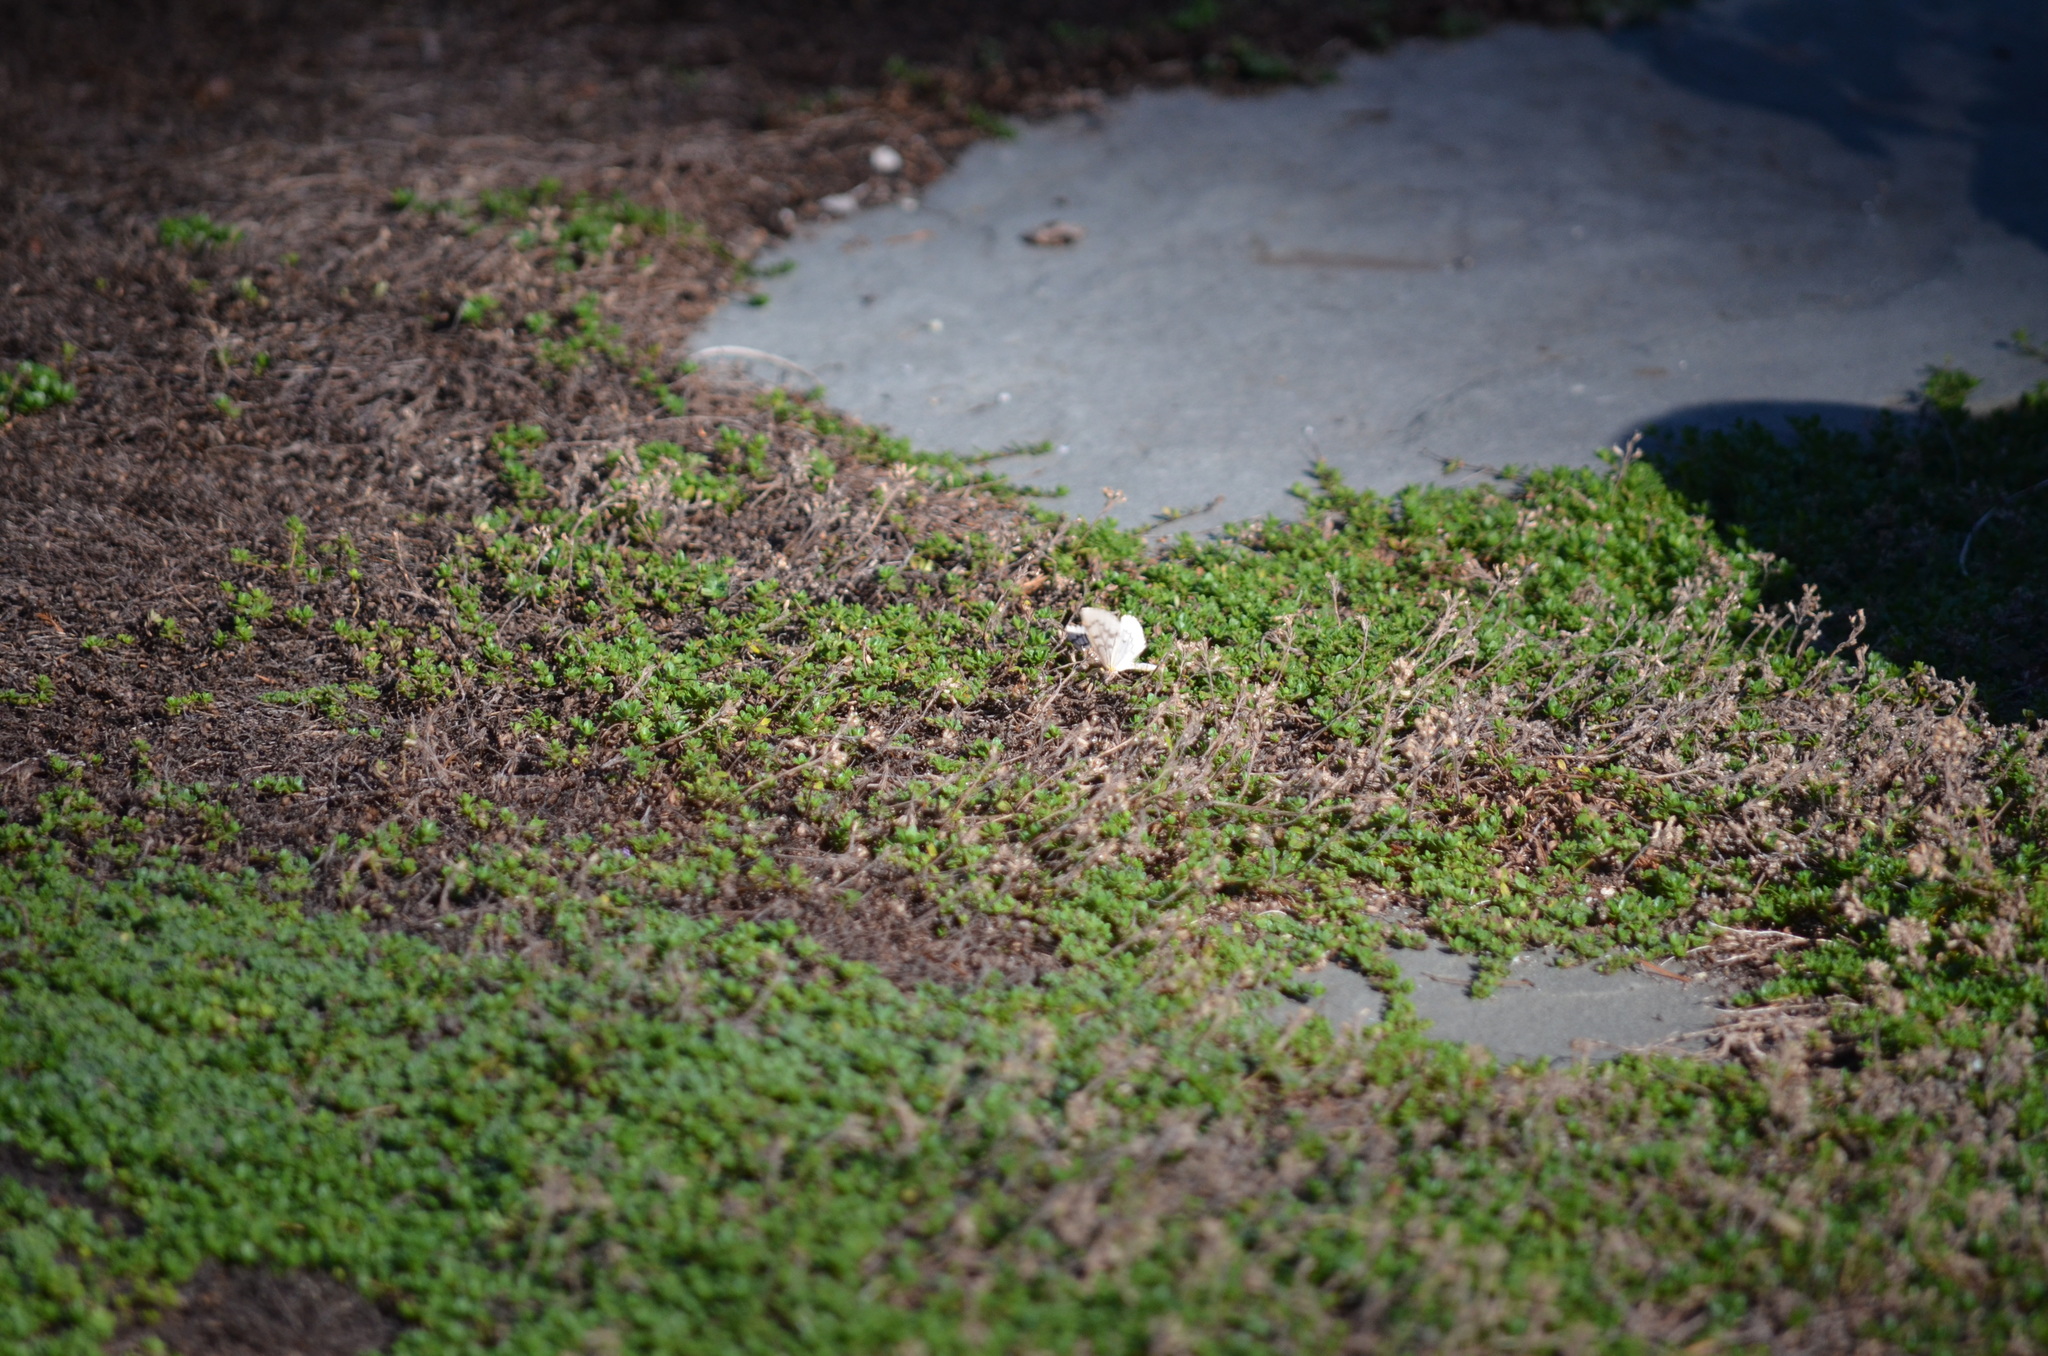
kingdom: Animalia
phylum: Arthropoda
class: Insecta
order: Lepidoptera
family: Geometridae
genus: Nepytia
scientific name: Nepytia phantasmaria
